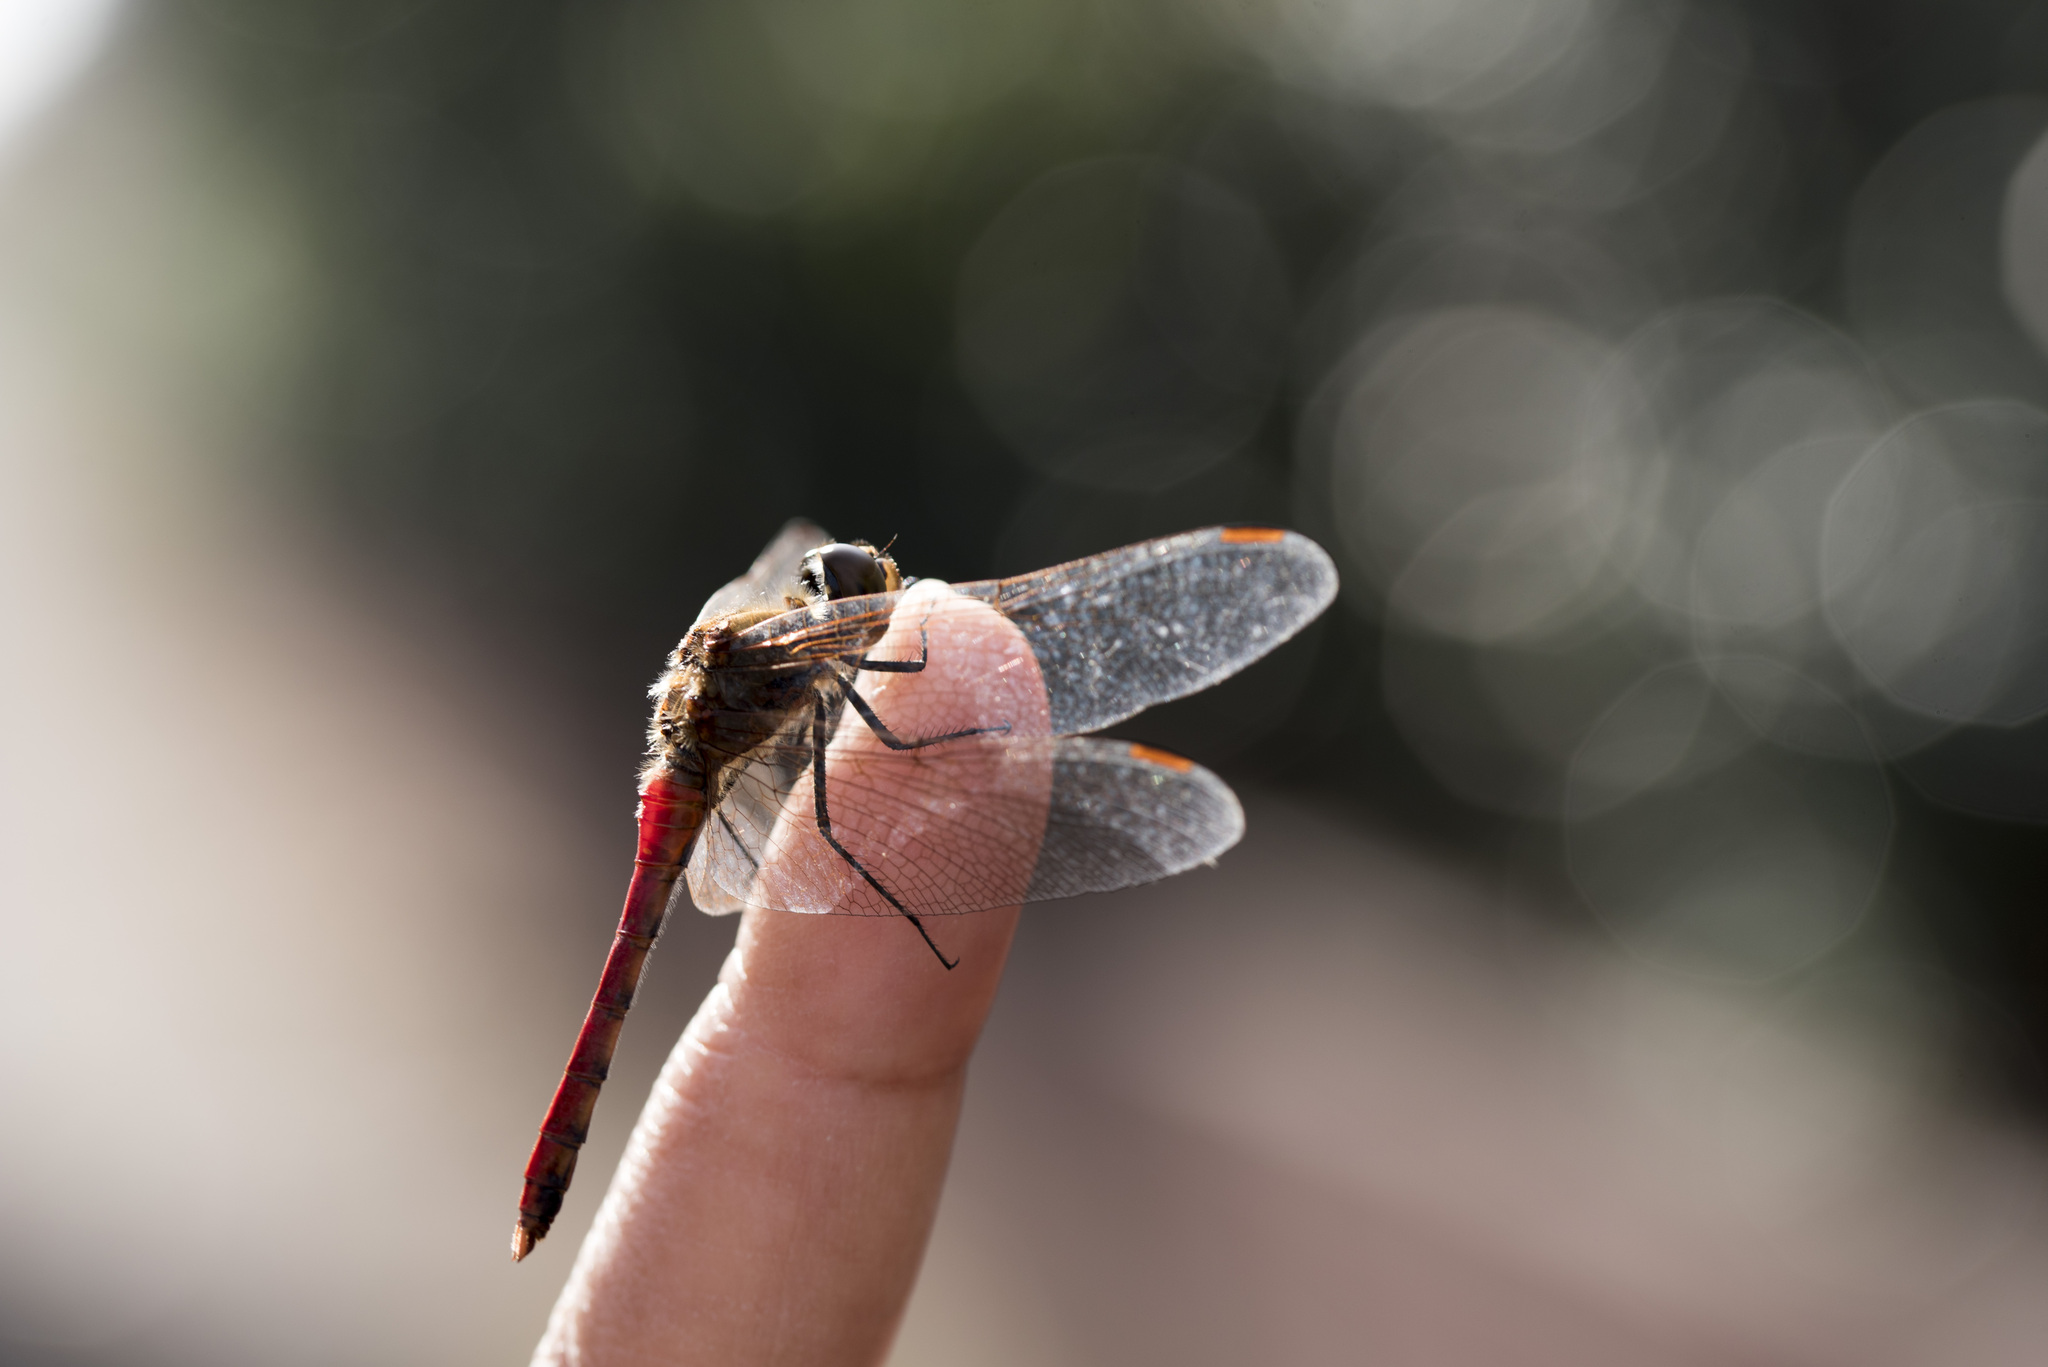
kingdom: Animalia
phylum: Arthropoda
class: Insecta
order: Odonata
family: Libellulidae
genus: Sympetrum
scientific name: Sympetrum frequens
